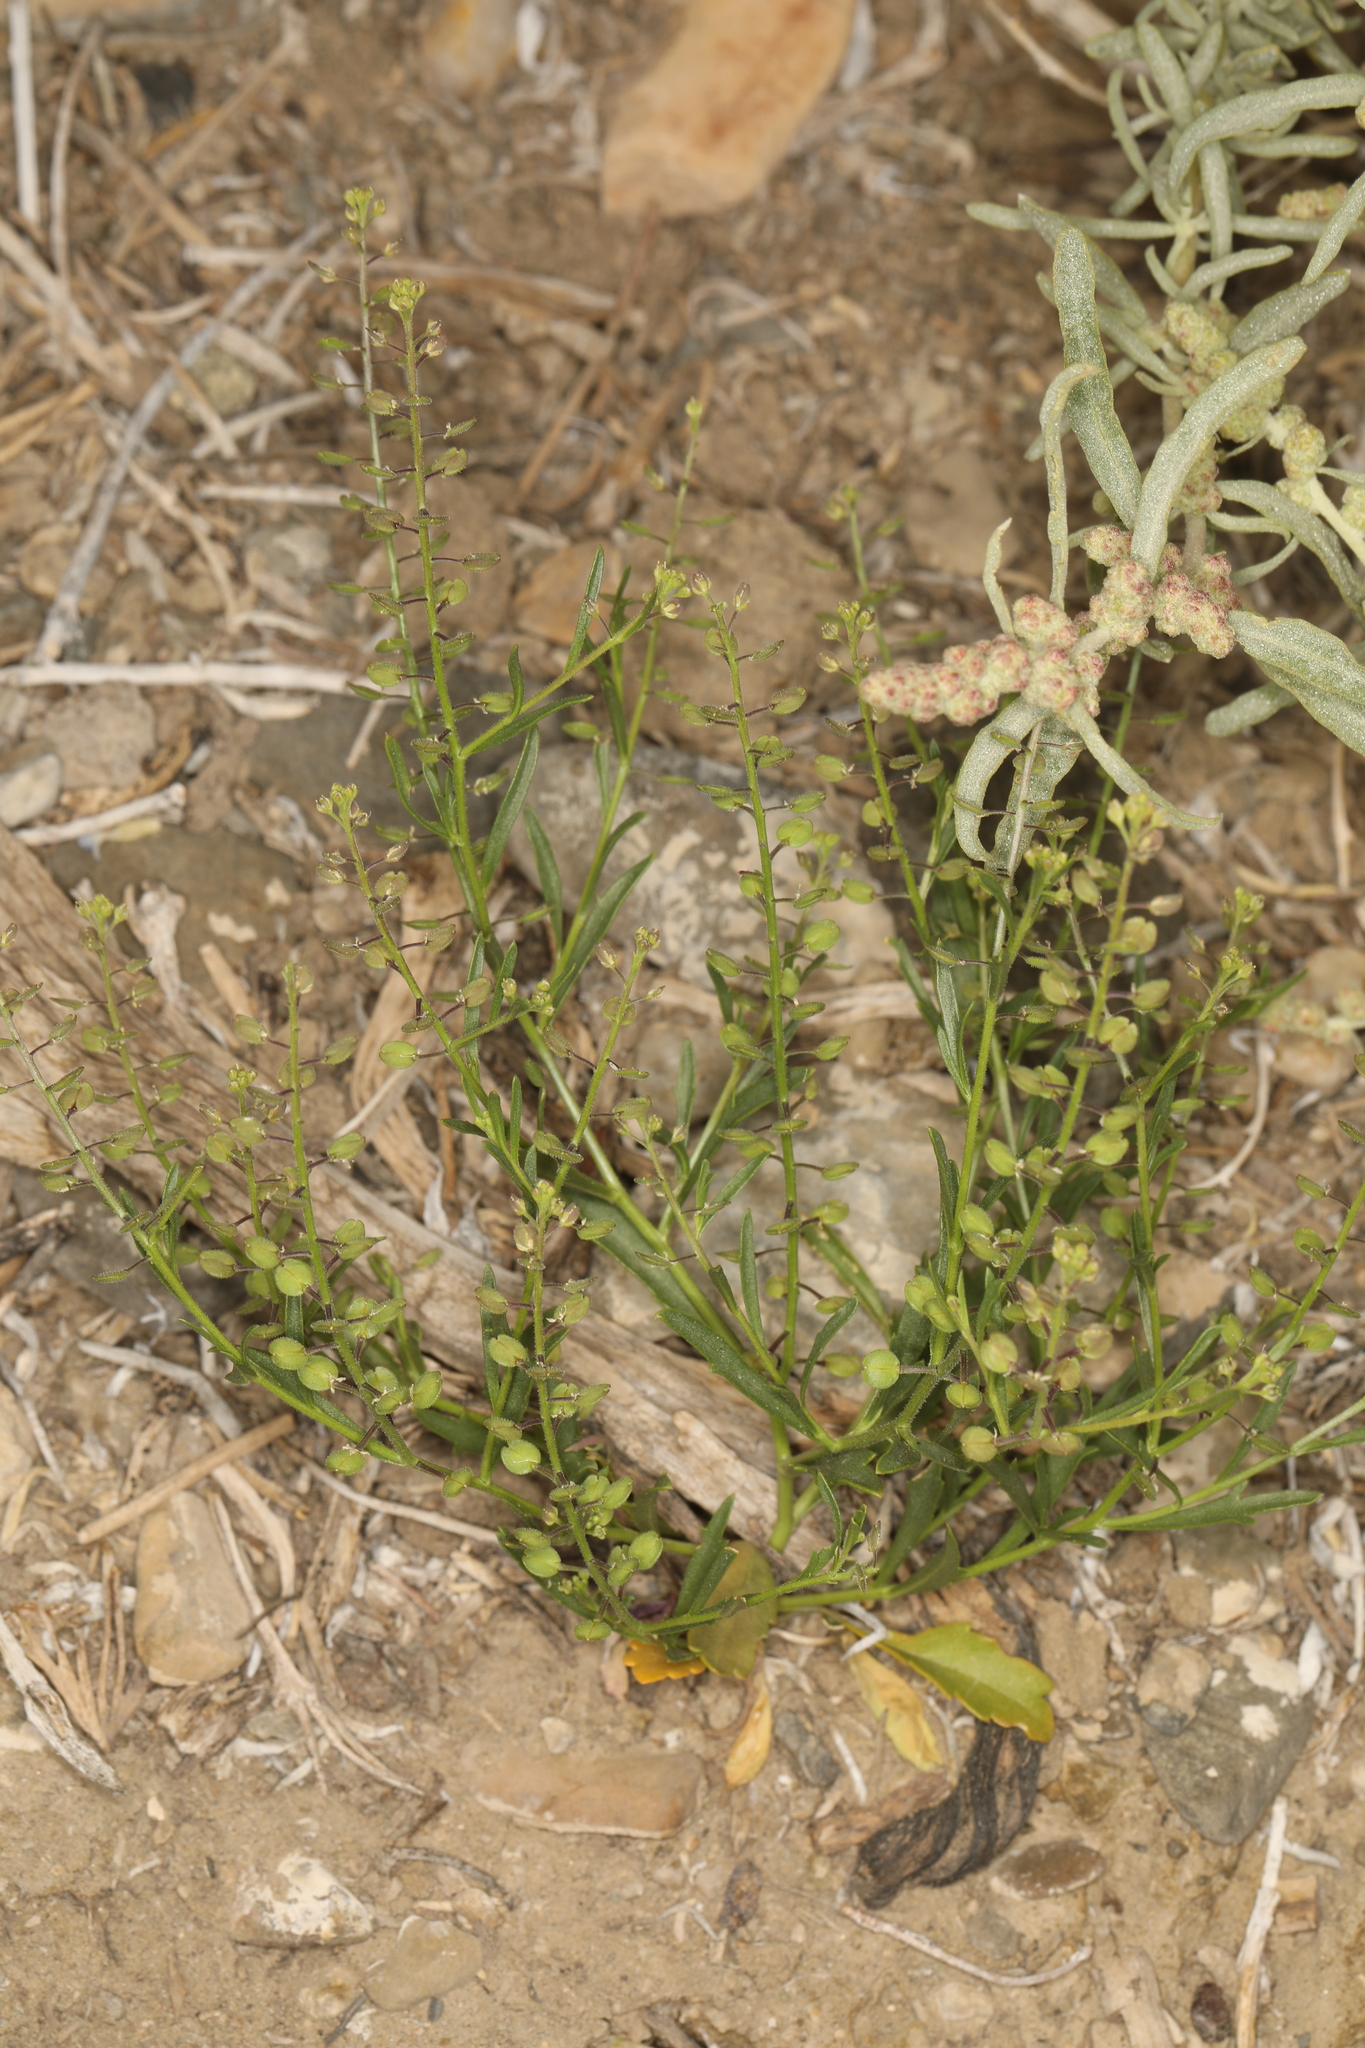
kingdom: Plantae
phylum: Tracheophyta
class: Magnoliopsida
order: Brassicales
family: Brassicaceae
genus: Lepidium
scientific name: Lepidium lasiocarpum
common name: Hairy-pod pepperwort
